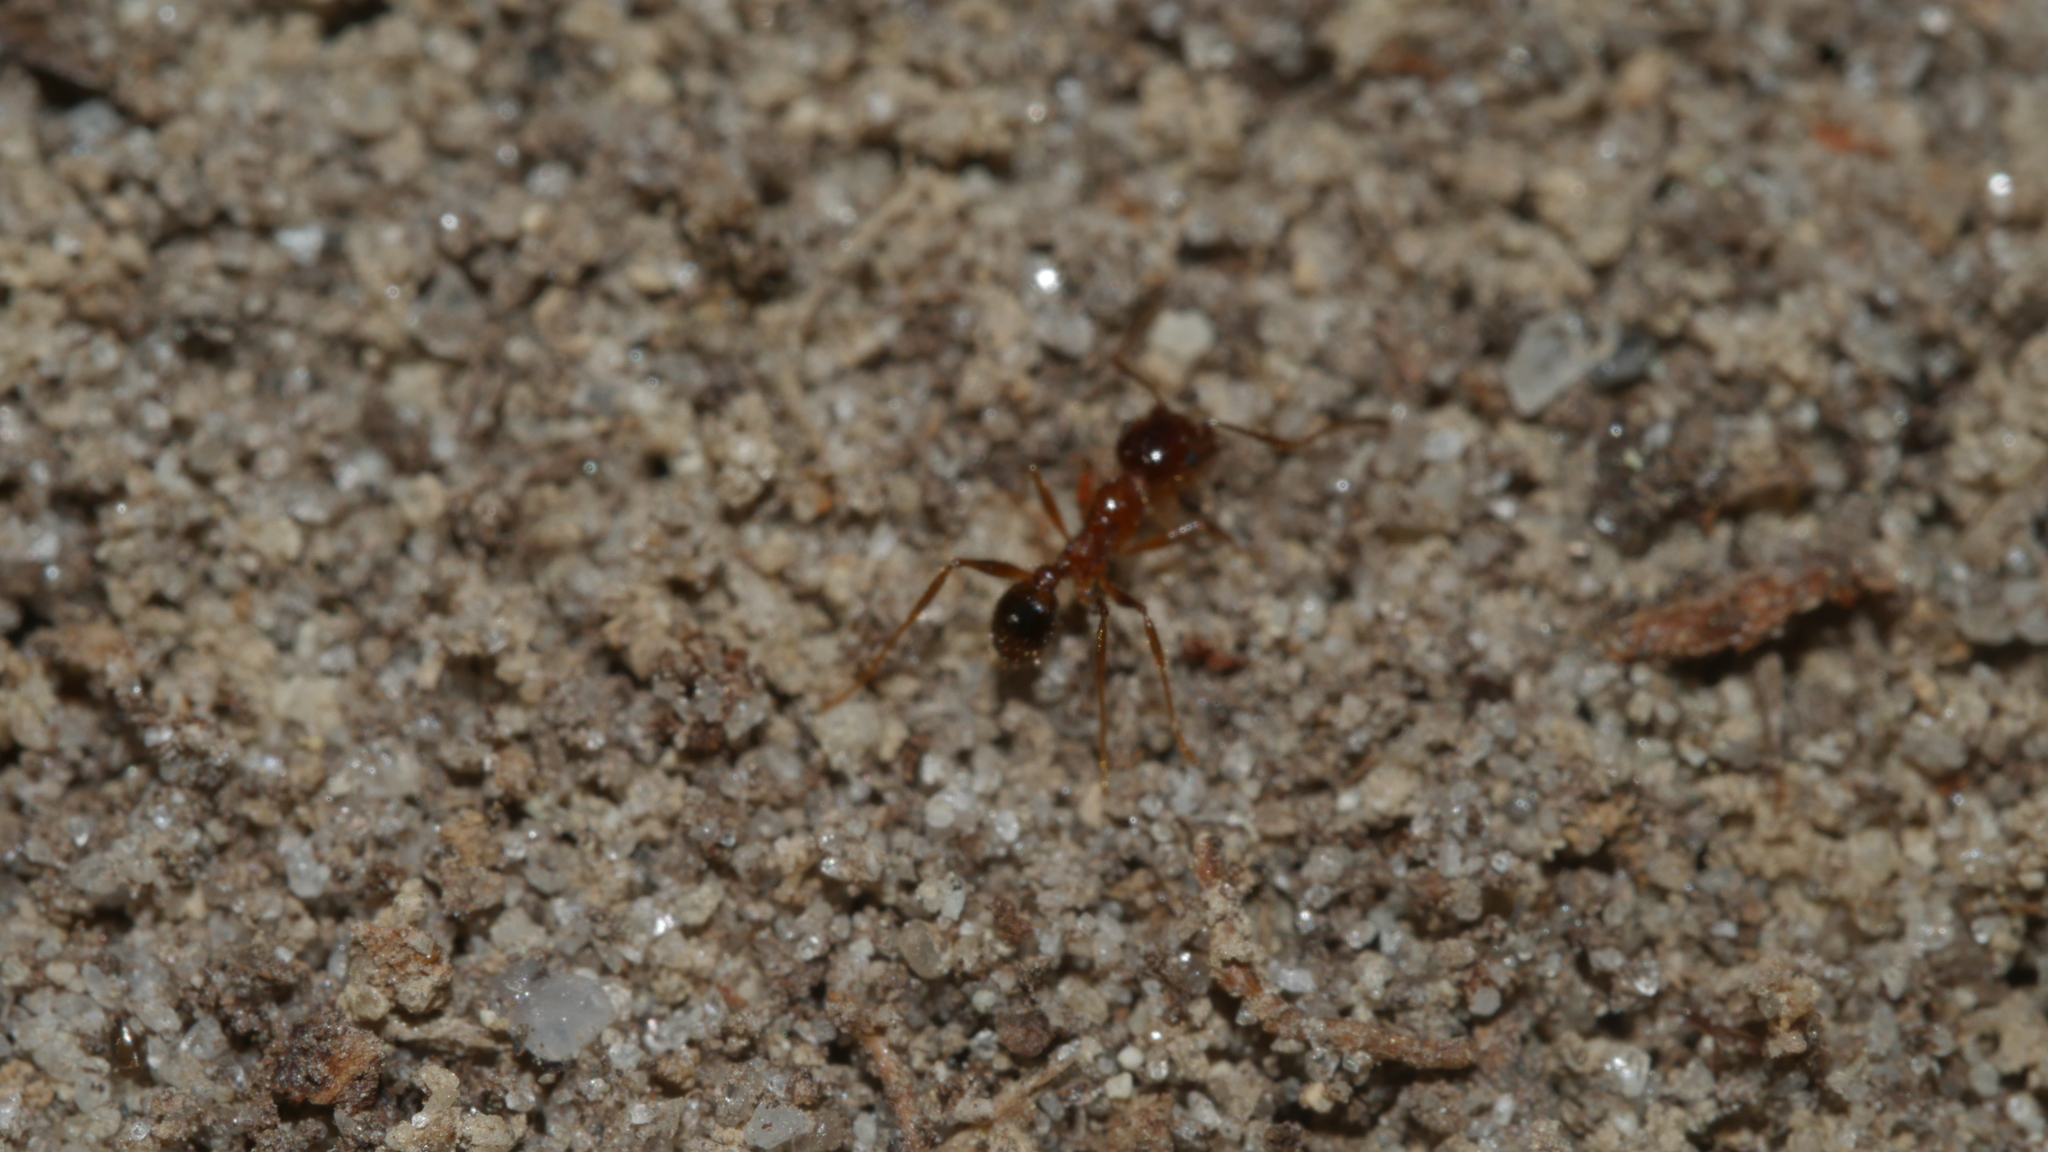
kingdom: Animalia
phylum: Arthropoda
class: Insecta
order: Hymenoptera
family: Formicidae
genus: Pheidole
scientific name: Pheidole dentata
